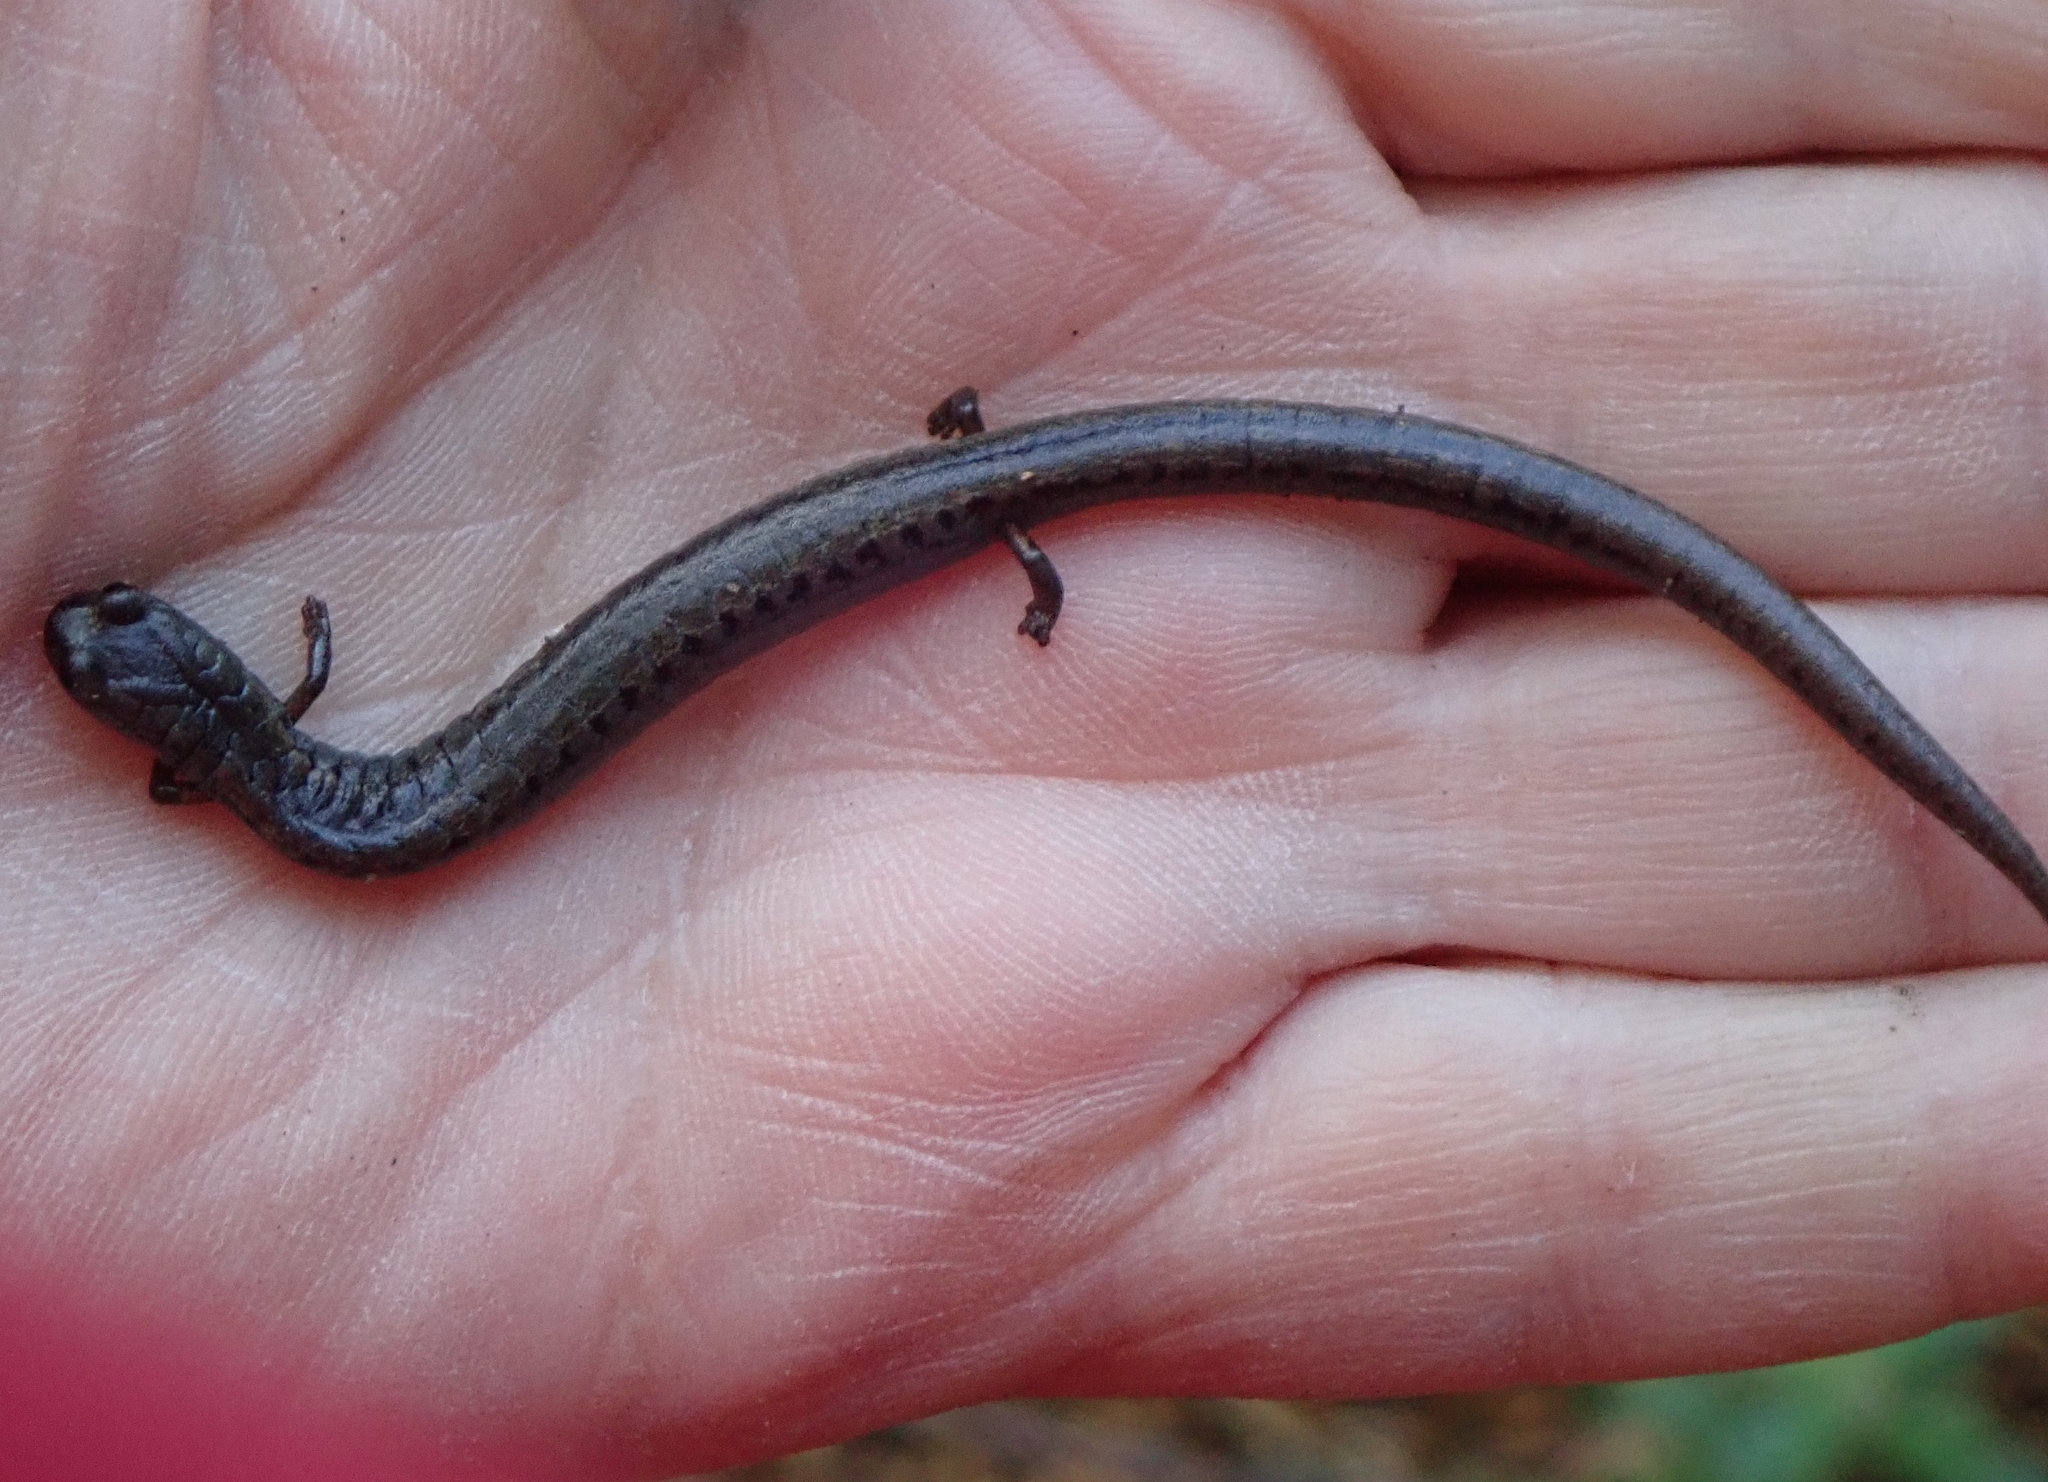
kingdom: Animalia
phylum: Chordata
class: Amphibia
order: Caudata
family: Plethodontidae
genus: Batrachoseps
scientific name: Batrachoseps attenuatus
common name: California slender salamander
